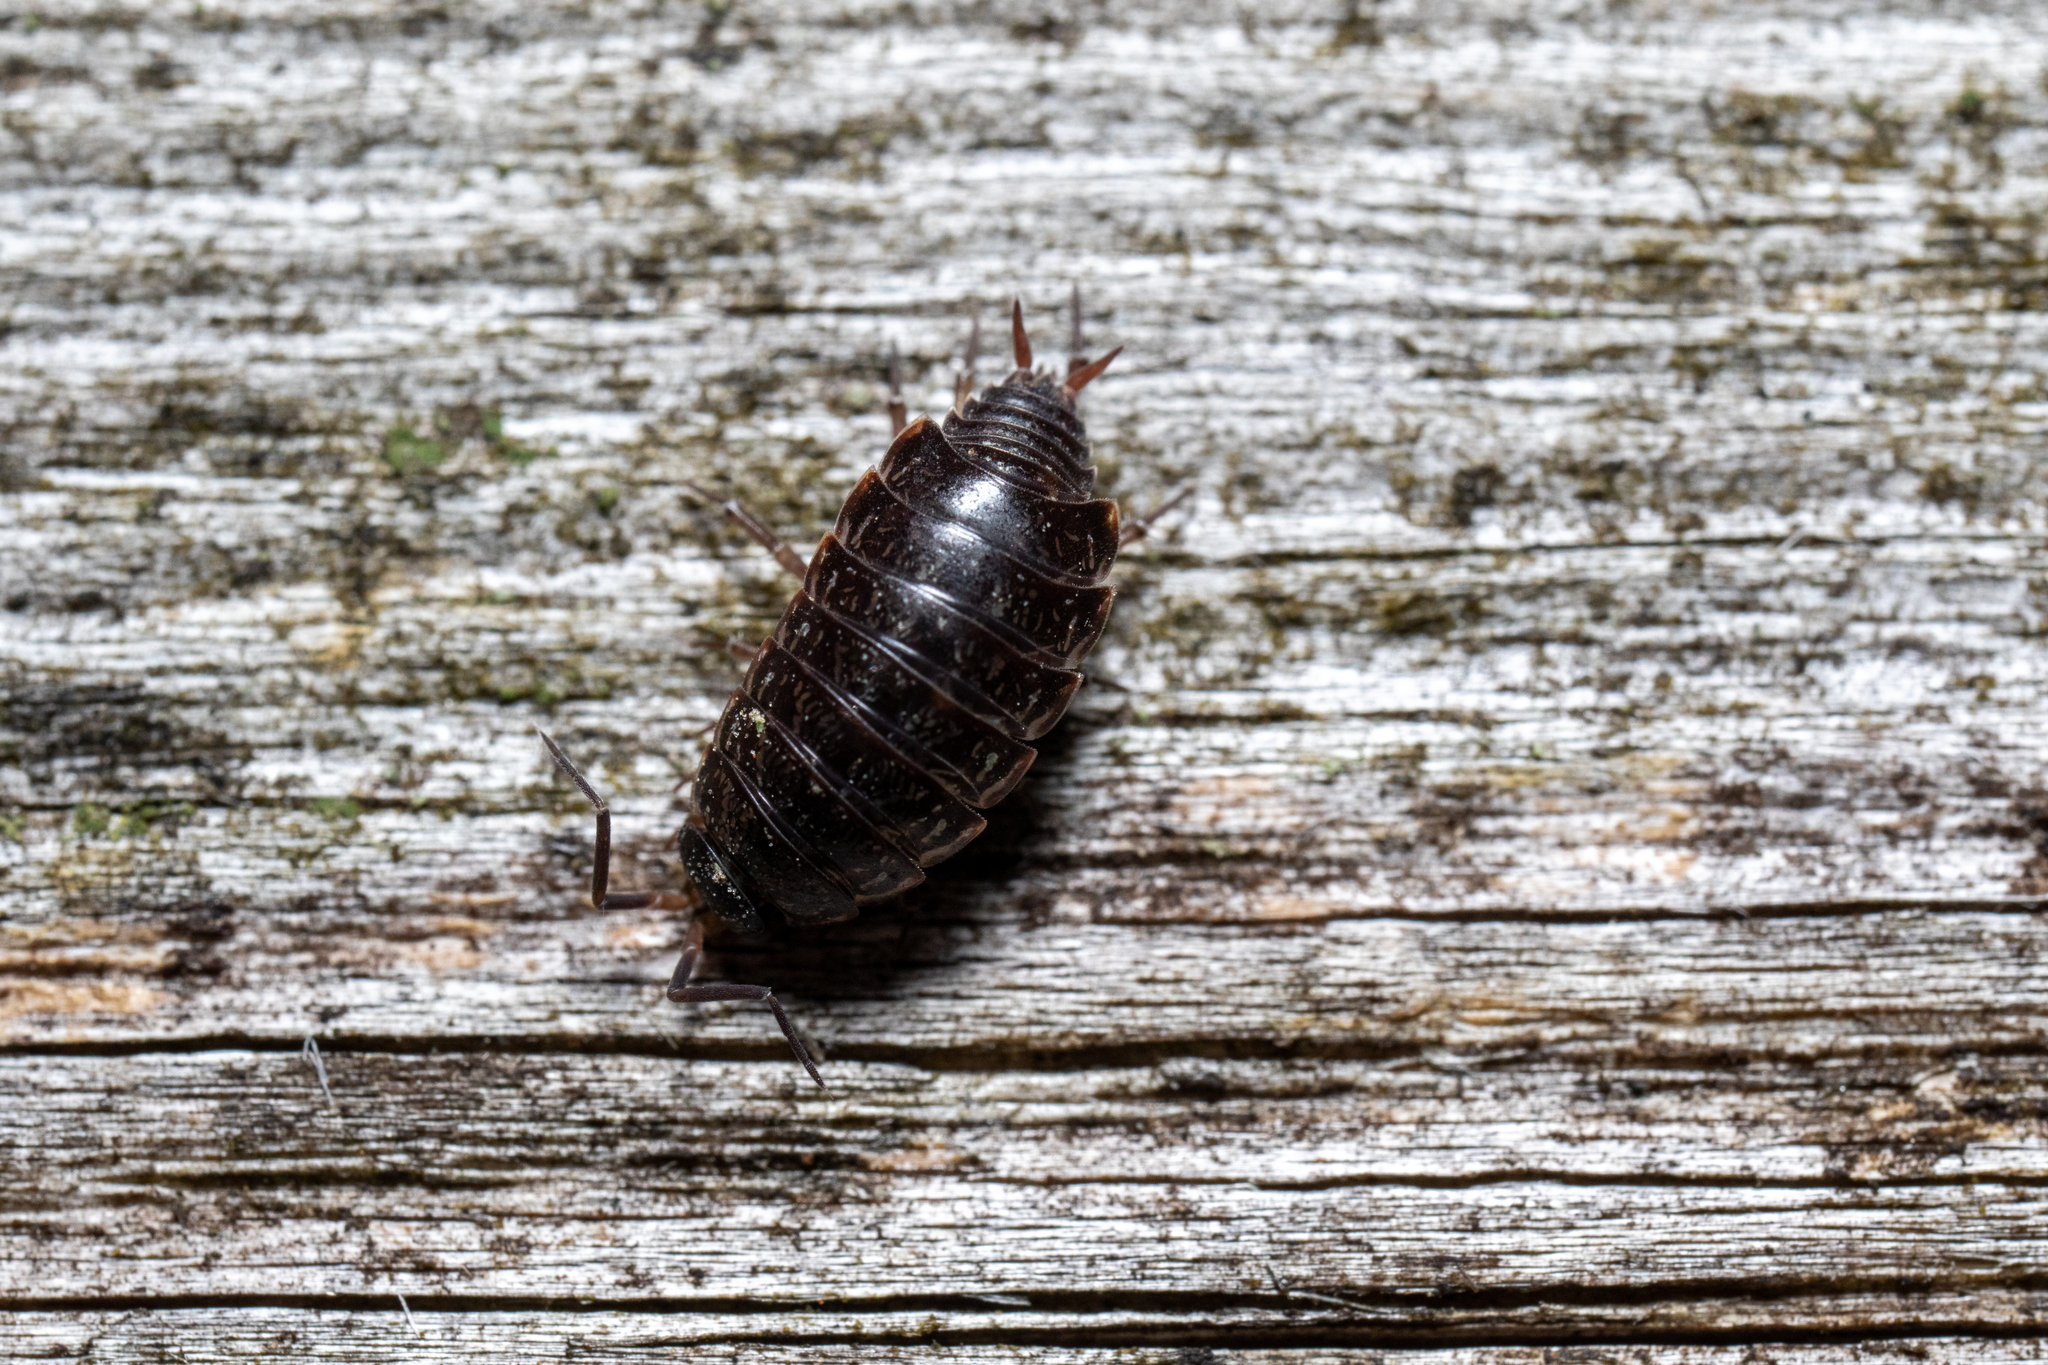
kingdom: Animalia
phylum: Arthropoda
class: Malacostraca
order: Isopoda
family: Philosciidae
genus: Philoscia
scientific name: Philoscia muscorum
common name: Common striped woodlouse
